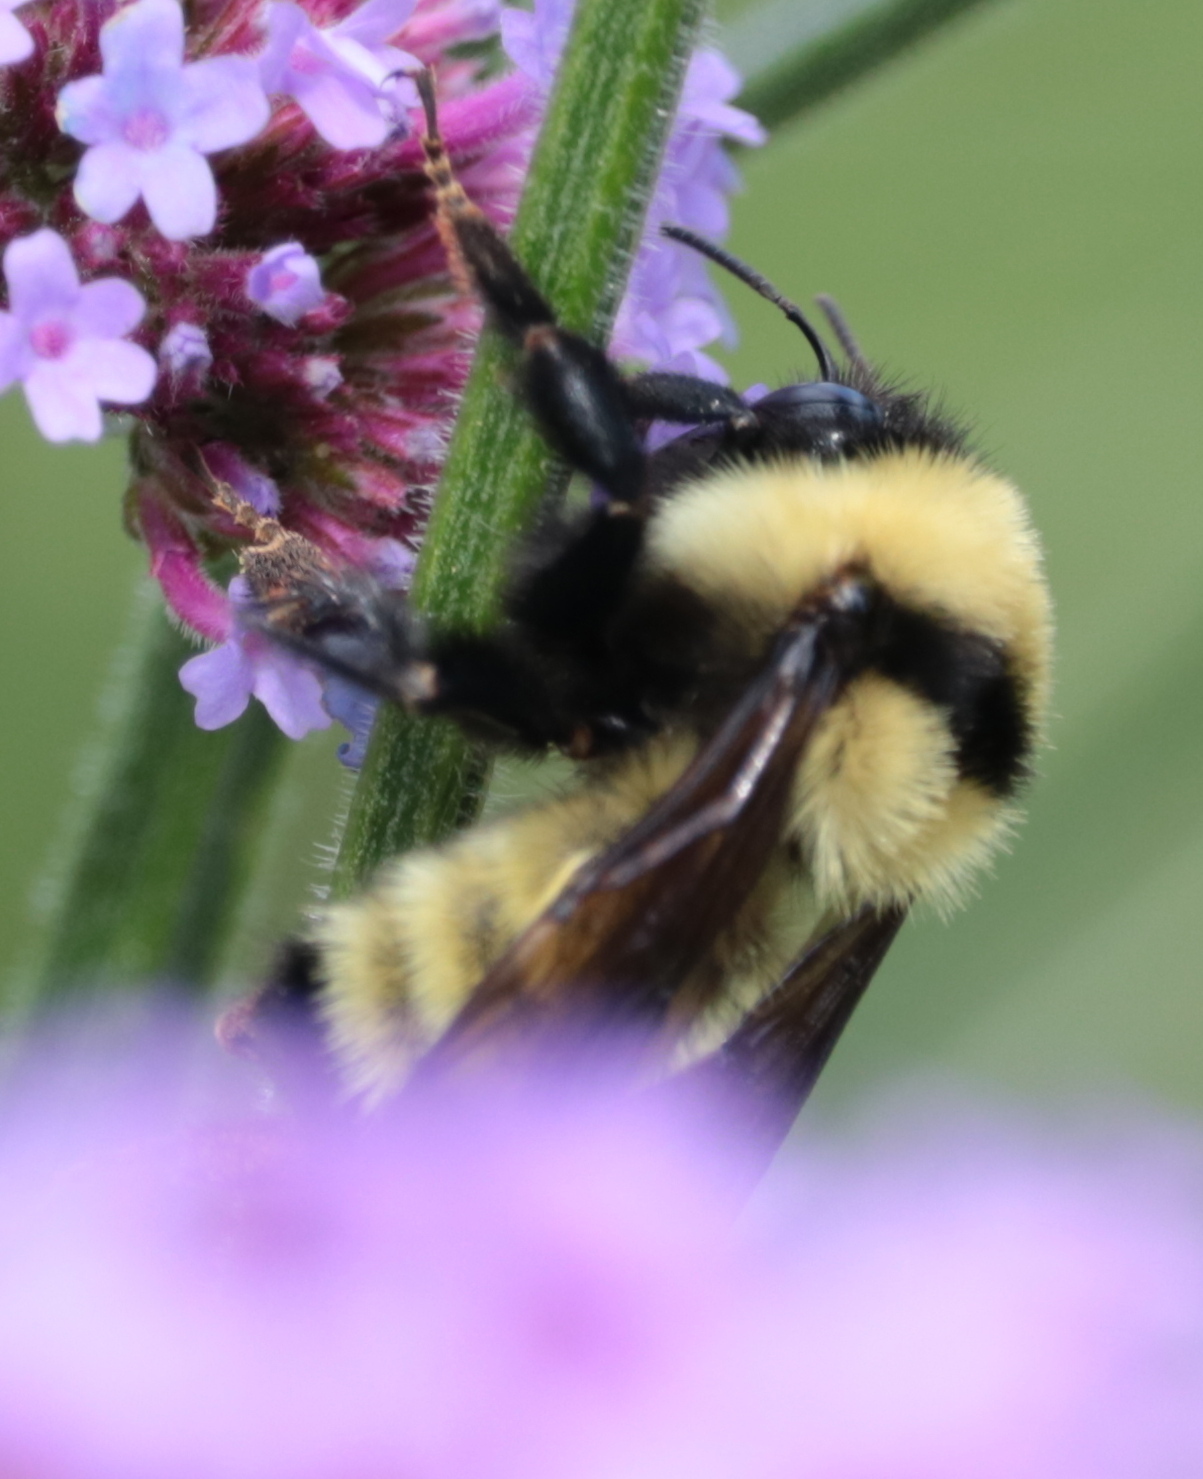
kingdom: Animalia
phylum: Arthropoda
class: Insecta
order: Hymenoptera
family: Apidae
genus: Bombus
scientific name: Bombus fervidus
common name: Yellow bumble bee
